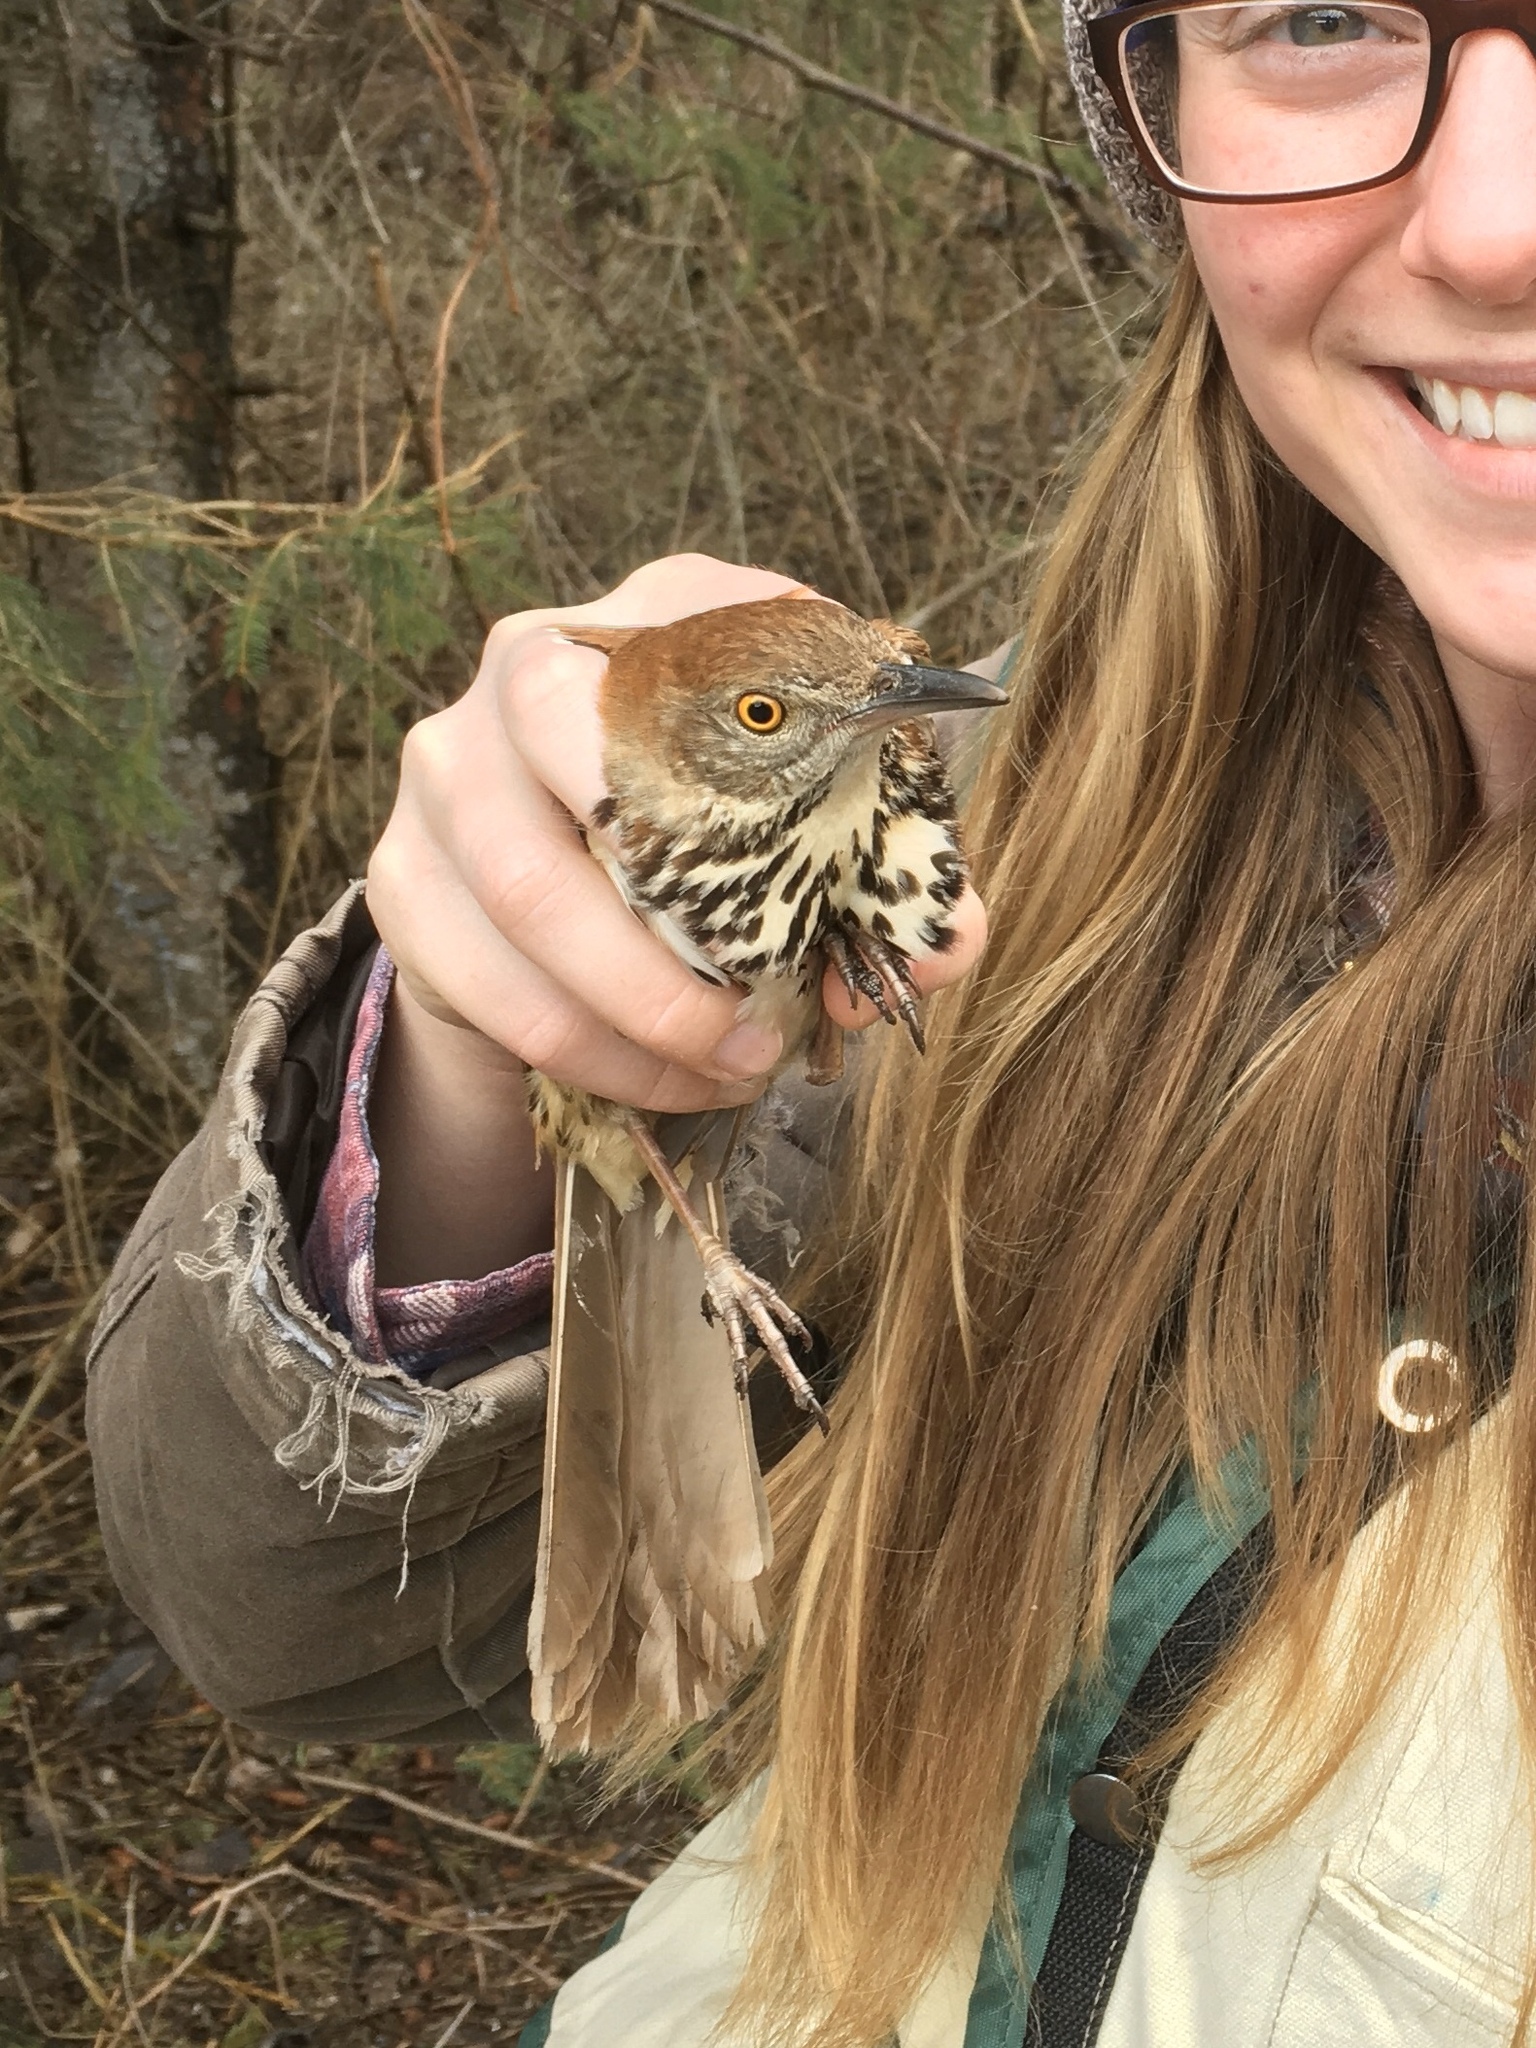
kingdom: Animalia
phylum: Chordata
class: Aves
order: Passeriformes
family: Mimidae
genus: Toxostoma
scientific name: Toxostoma rufum
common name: Brown thrasher
